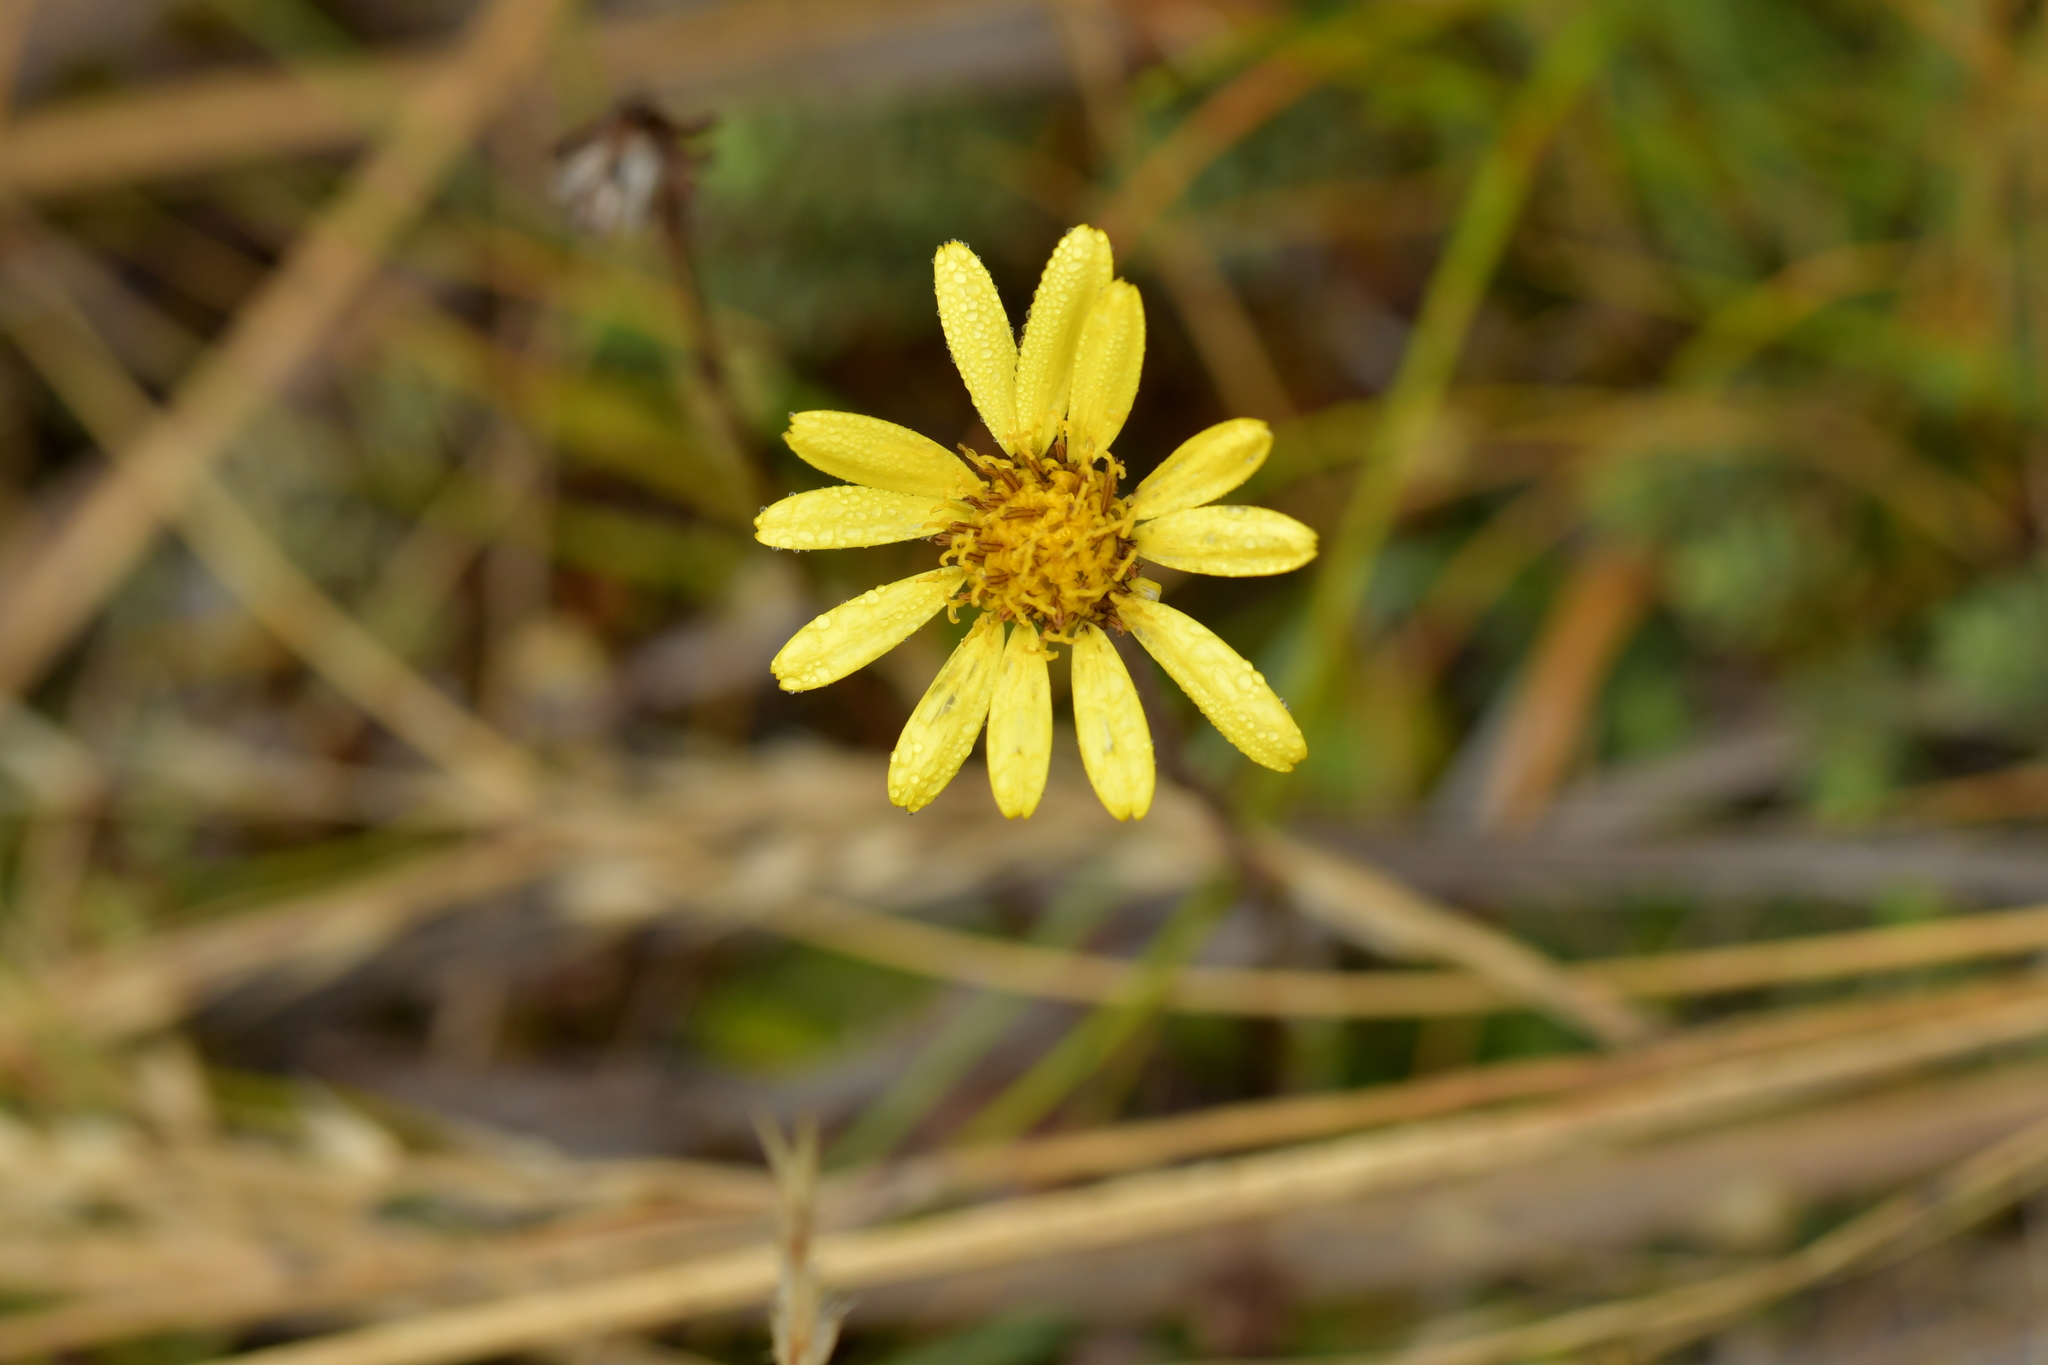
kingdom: Plantae
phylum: Tracheophyta
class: Magnoliopsida
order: Asterales
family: Asteraceae
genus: Brachyglottis
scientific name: Brachyglottis bellidioides
